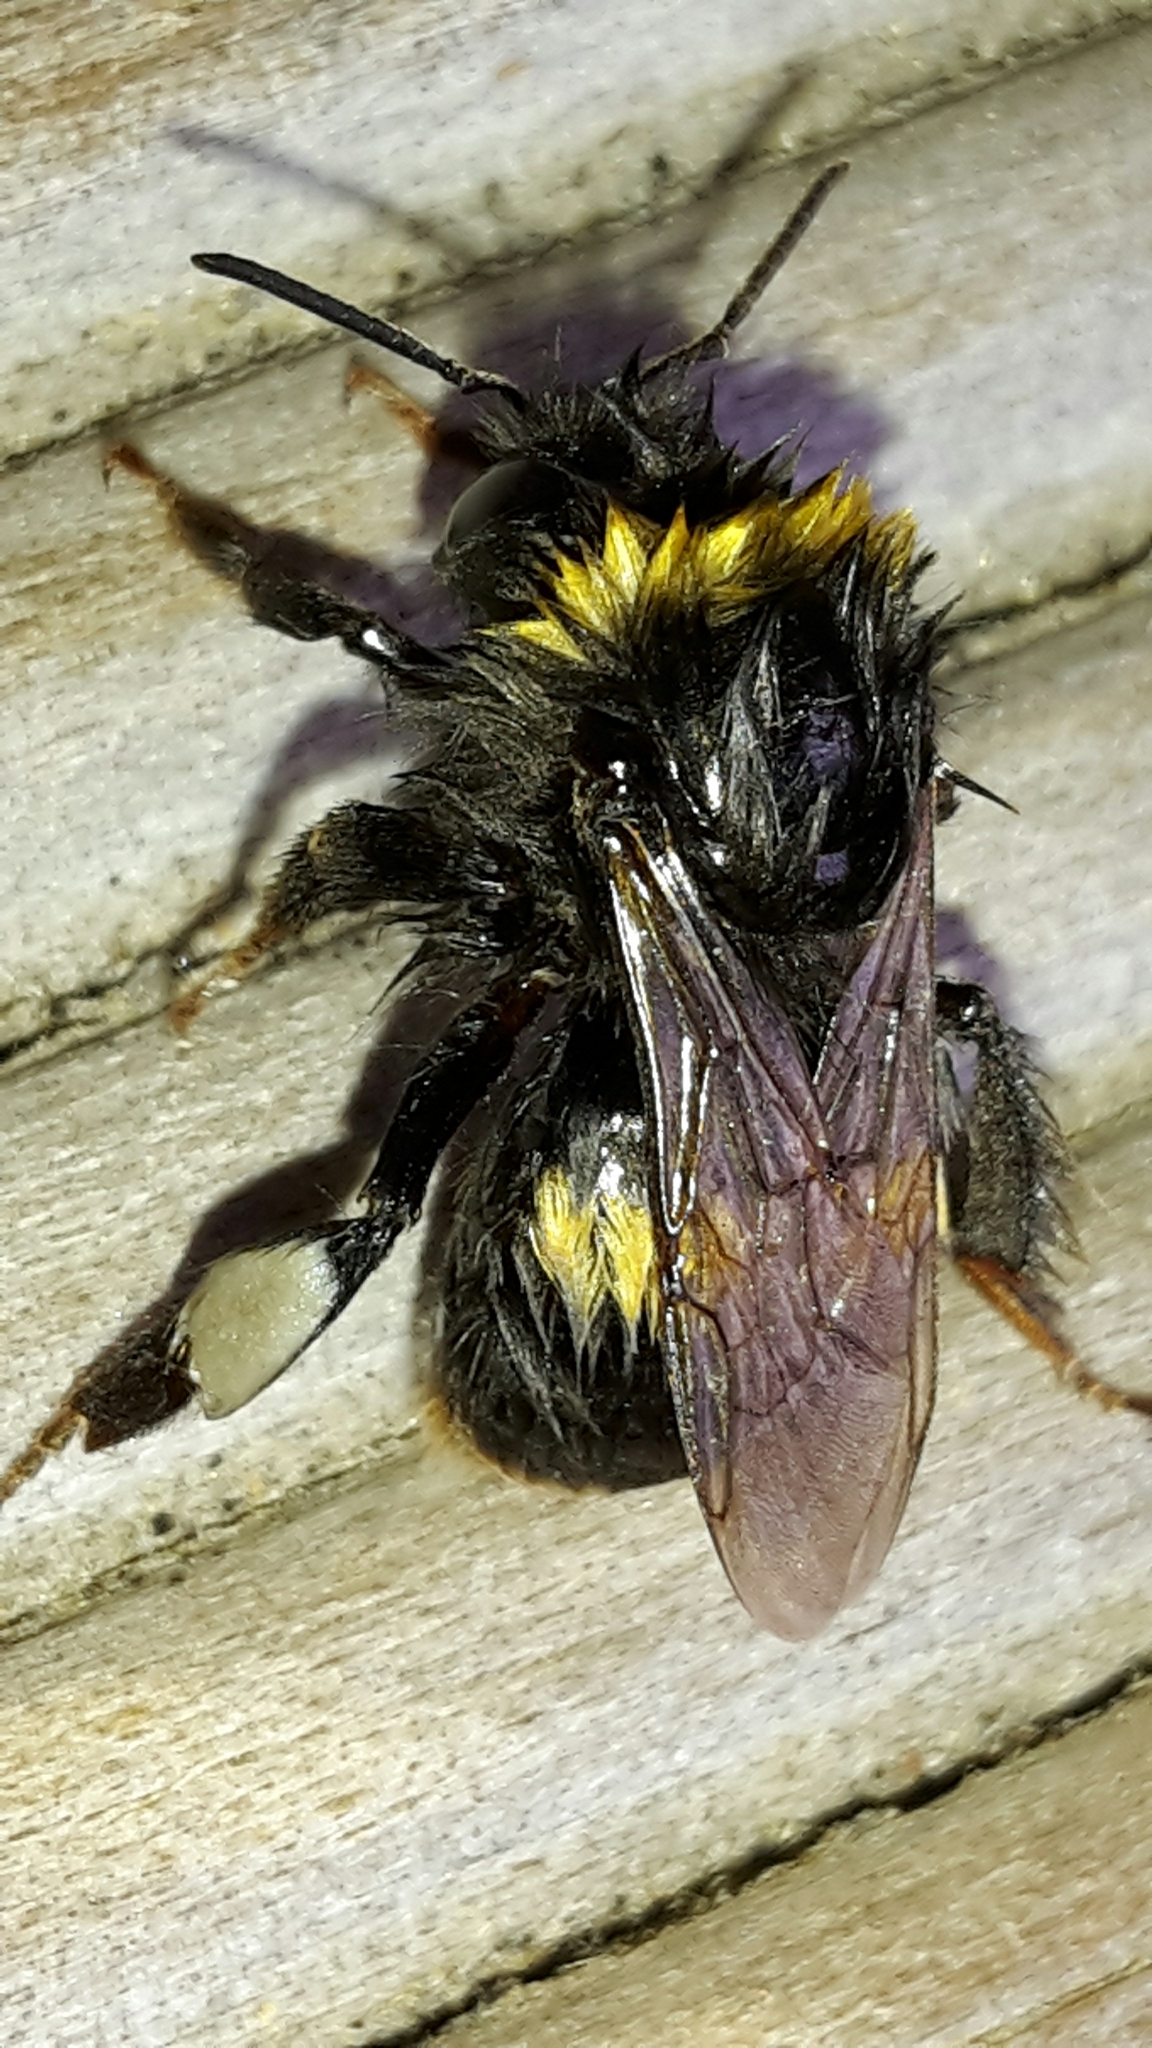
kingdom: Animalia
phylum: Arthropoda
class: Insecta
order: Hymenoptera
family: Apidae
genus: Bombus
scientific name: Bombus terrestris
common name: Buff-tailed bumblebee
